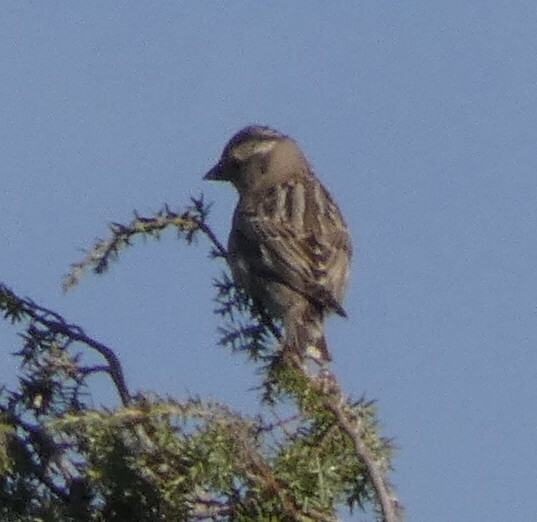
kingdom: Animalia
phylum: Chordata
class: Aves
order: Passeriformes
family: Passeridae
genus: Petronia
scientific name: Petronia petronia
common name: Rock sparrow
